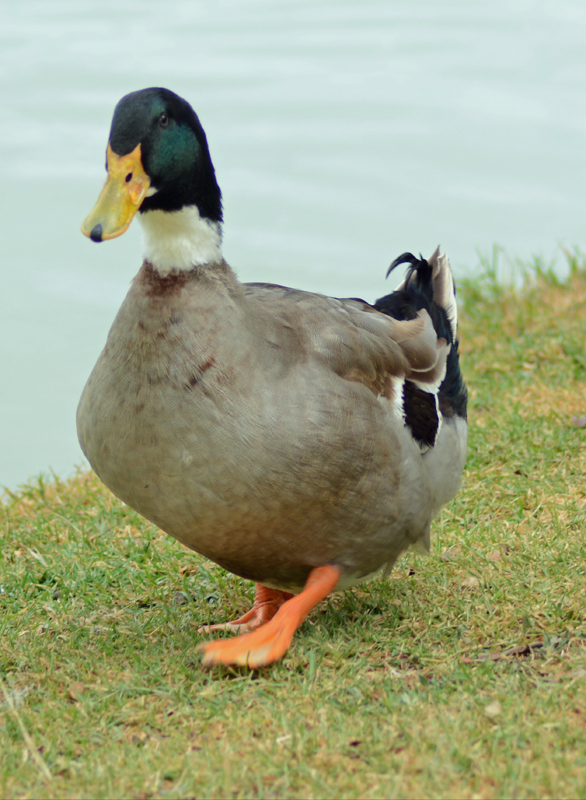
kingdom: Animalia
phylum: Chordata
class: Aves
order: Anseriformes
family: Anatidae
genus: Anas
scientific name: Anas platyrhynchos
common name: Mallard
